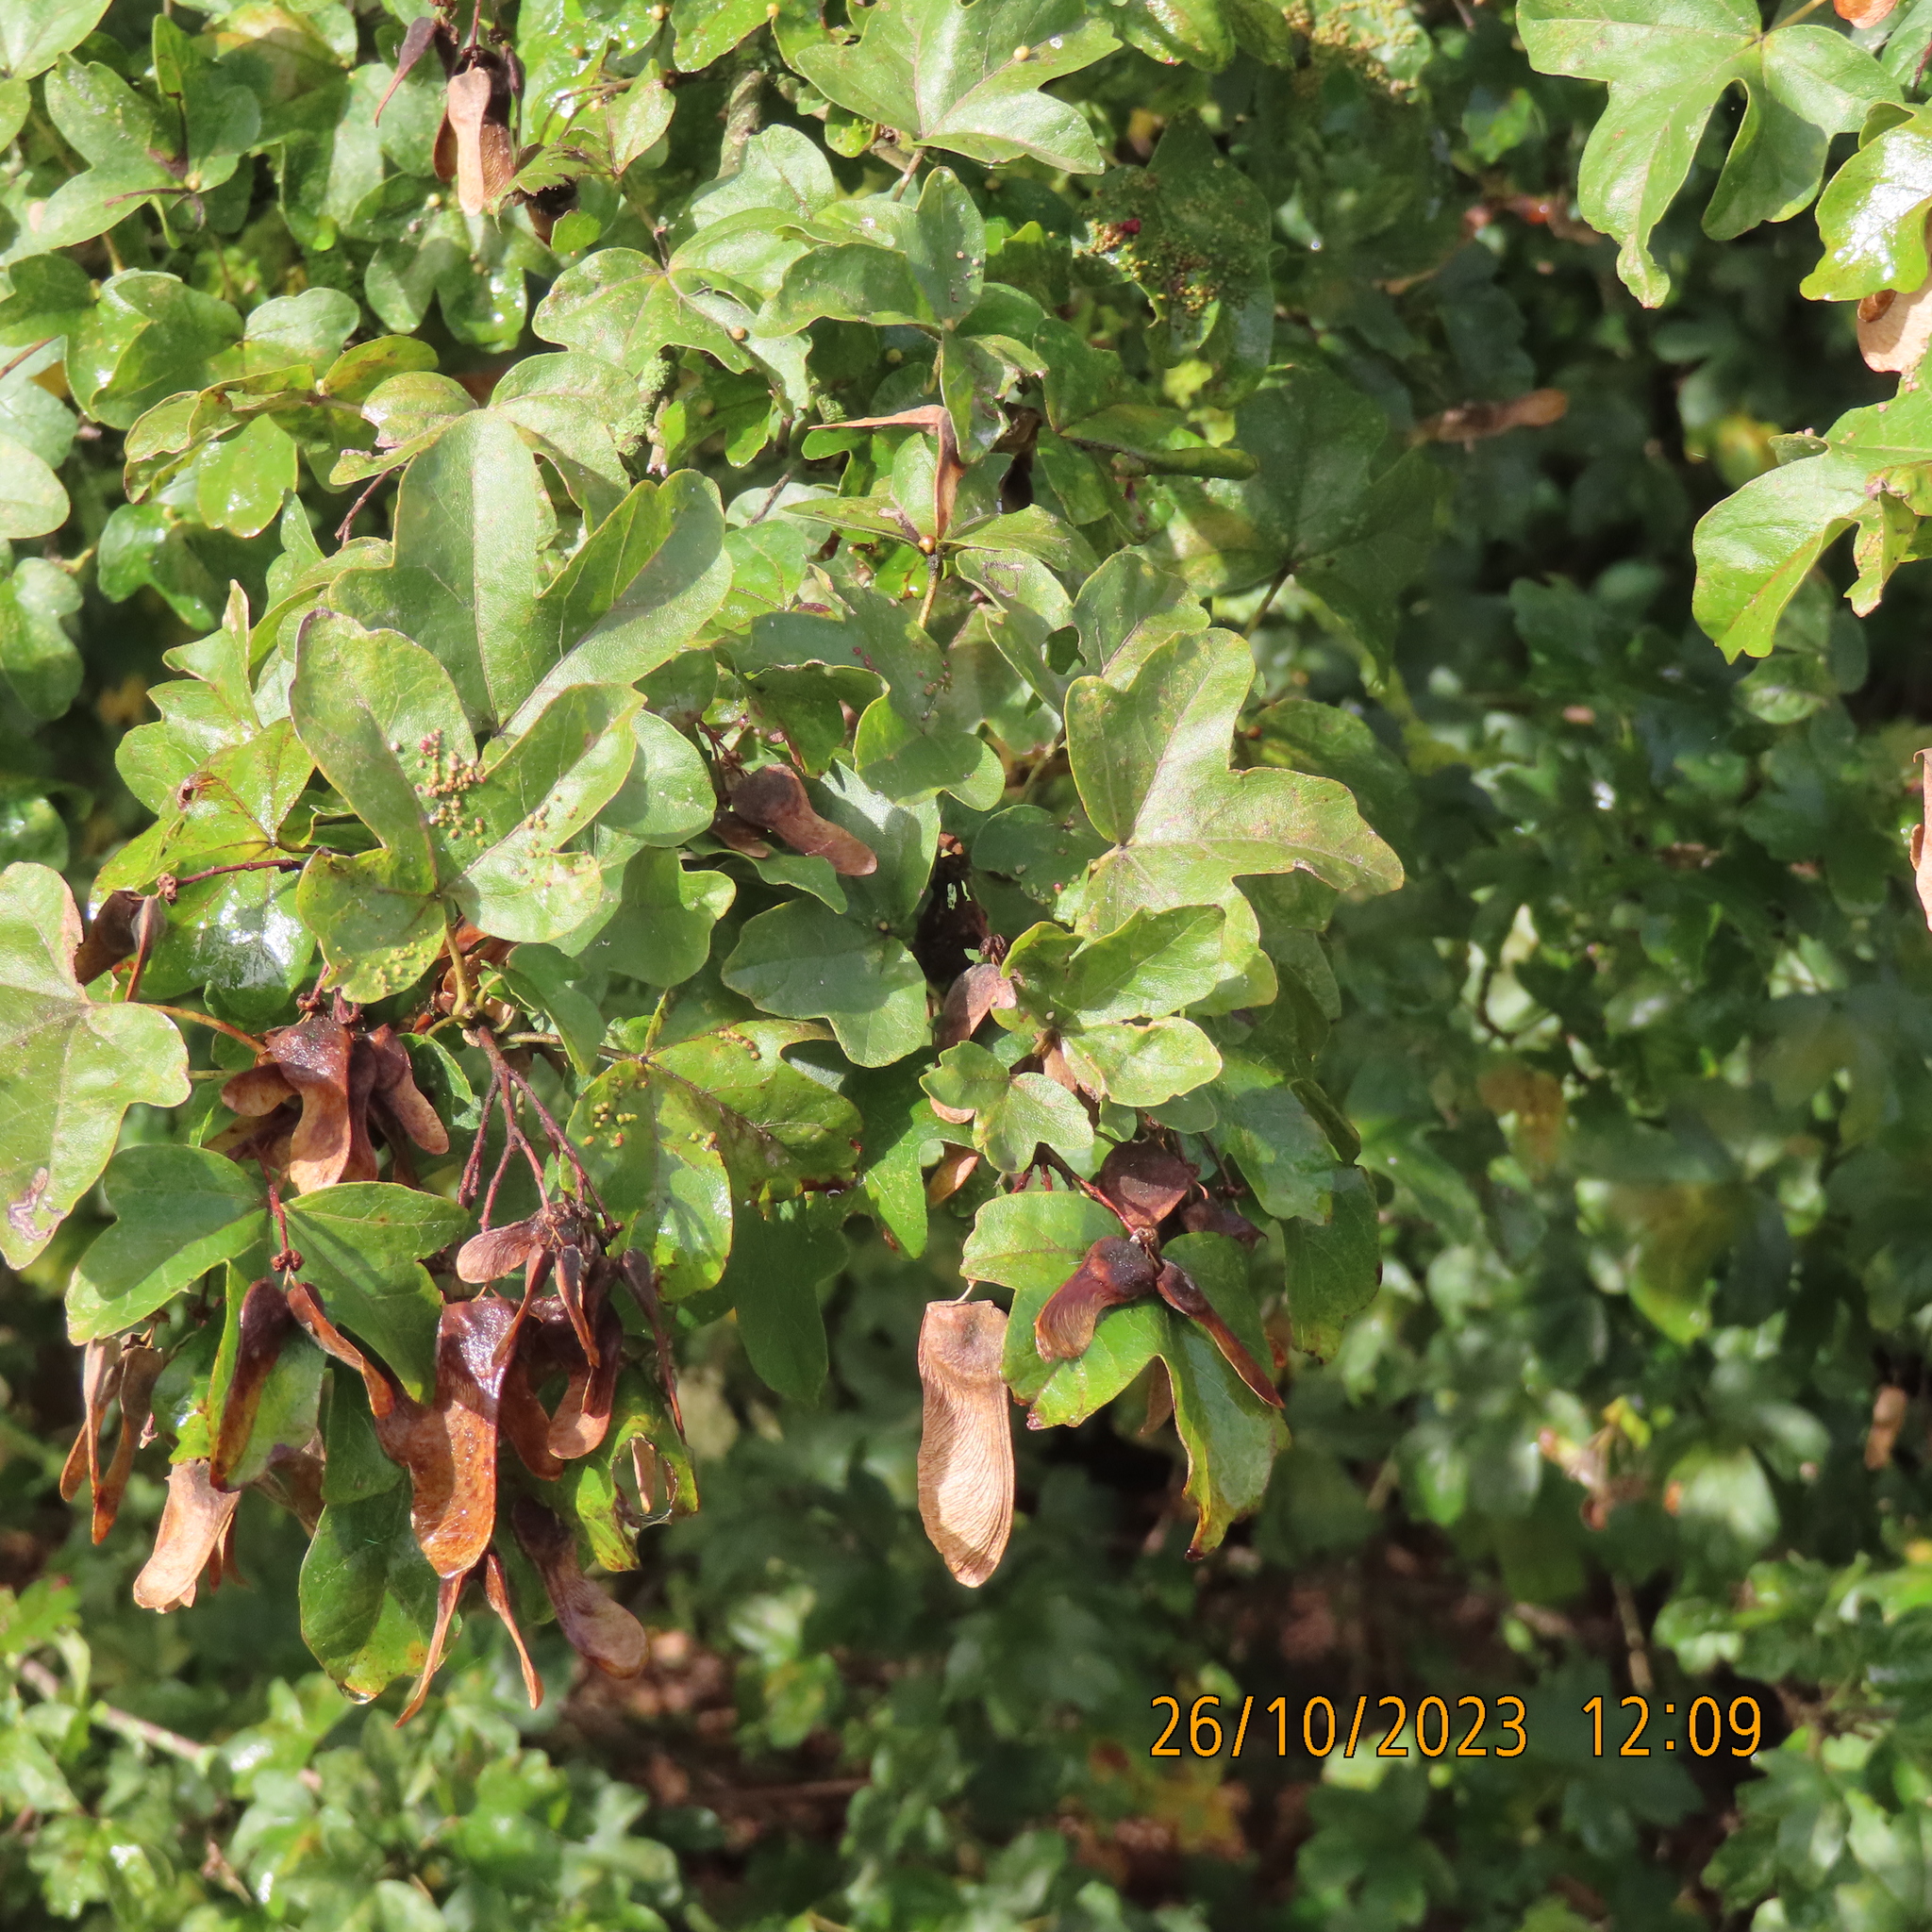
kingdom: Plantae
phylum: Tracheophyta
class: Magnoliopsida
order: Sapindales
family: Sapindaceae
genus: Acer
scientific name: Acer campestre
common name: Field maple
